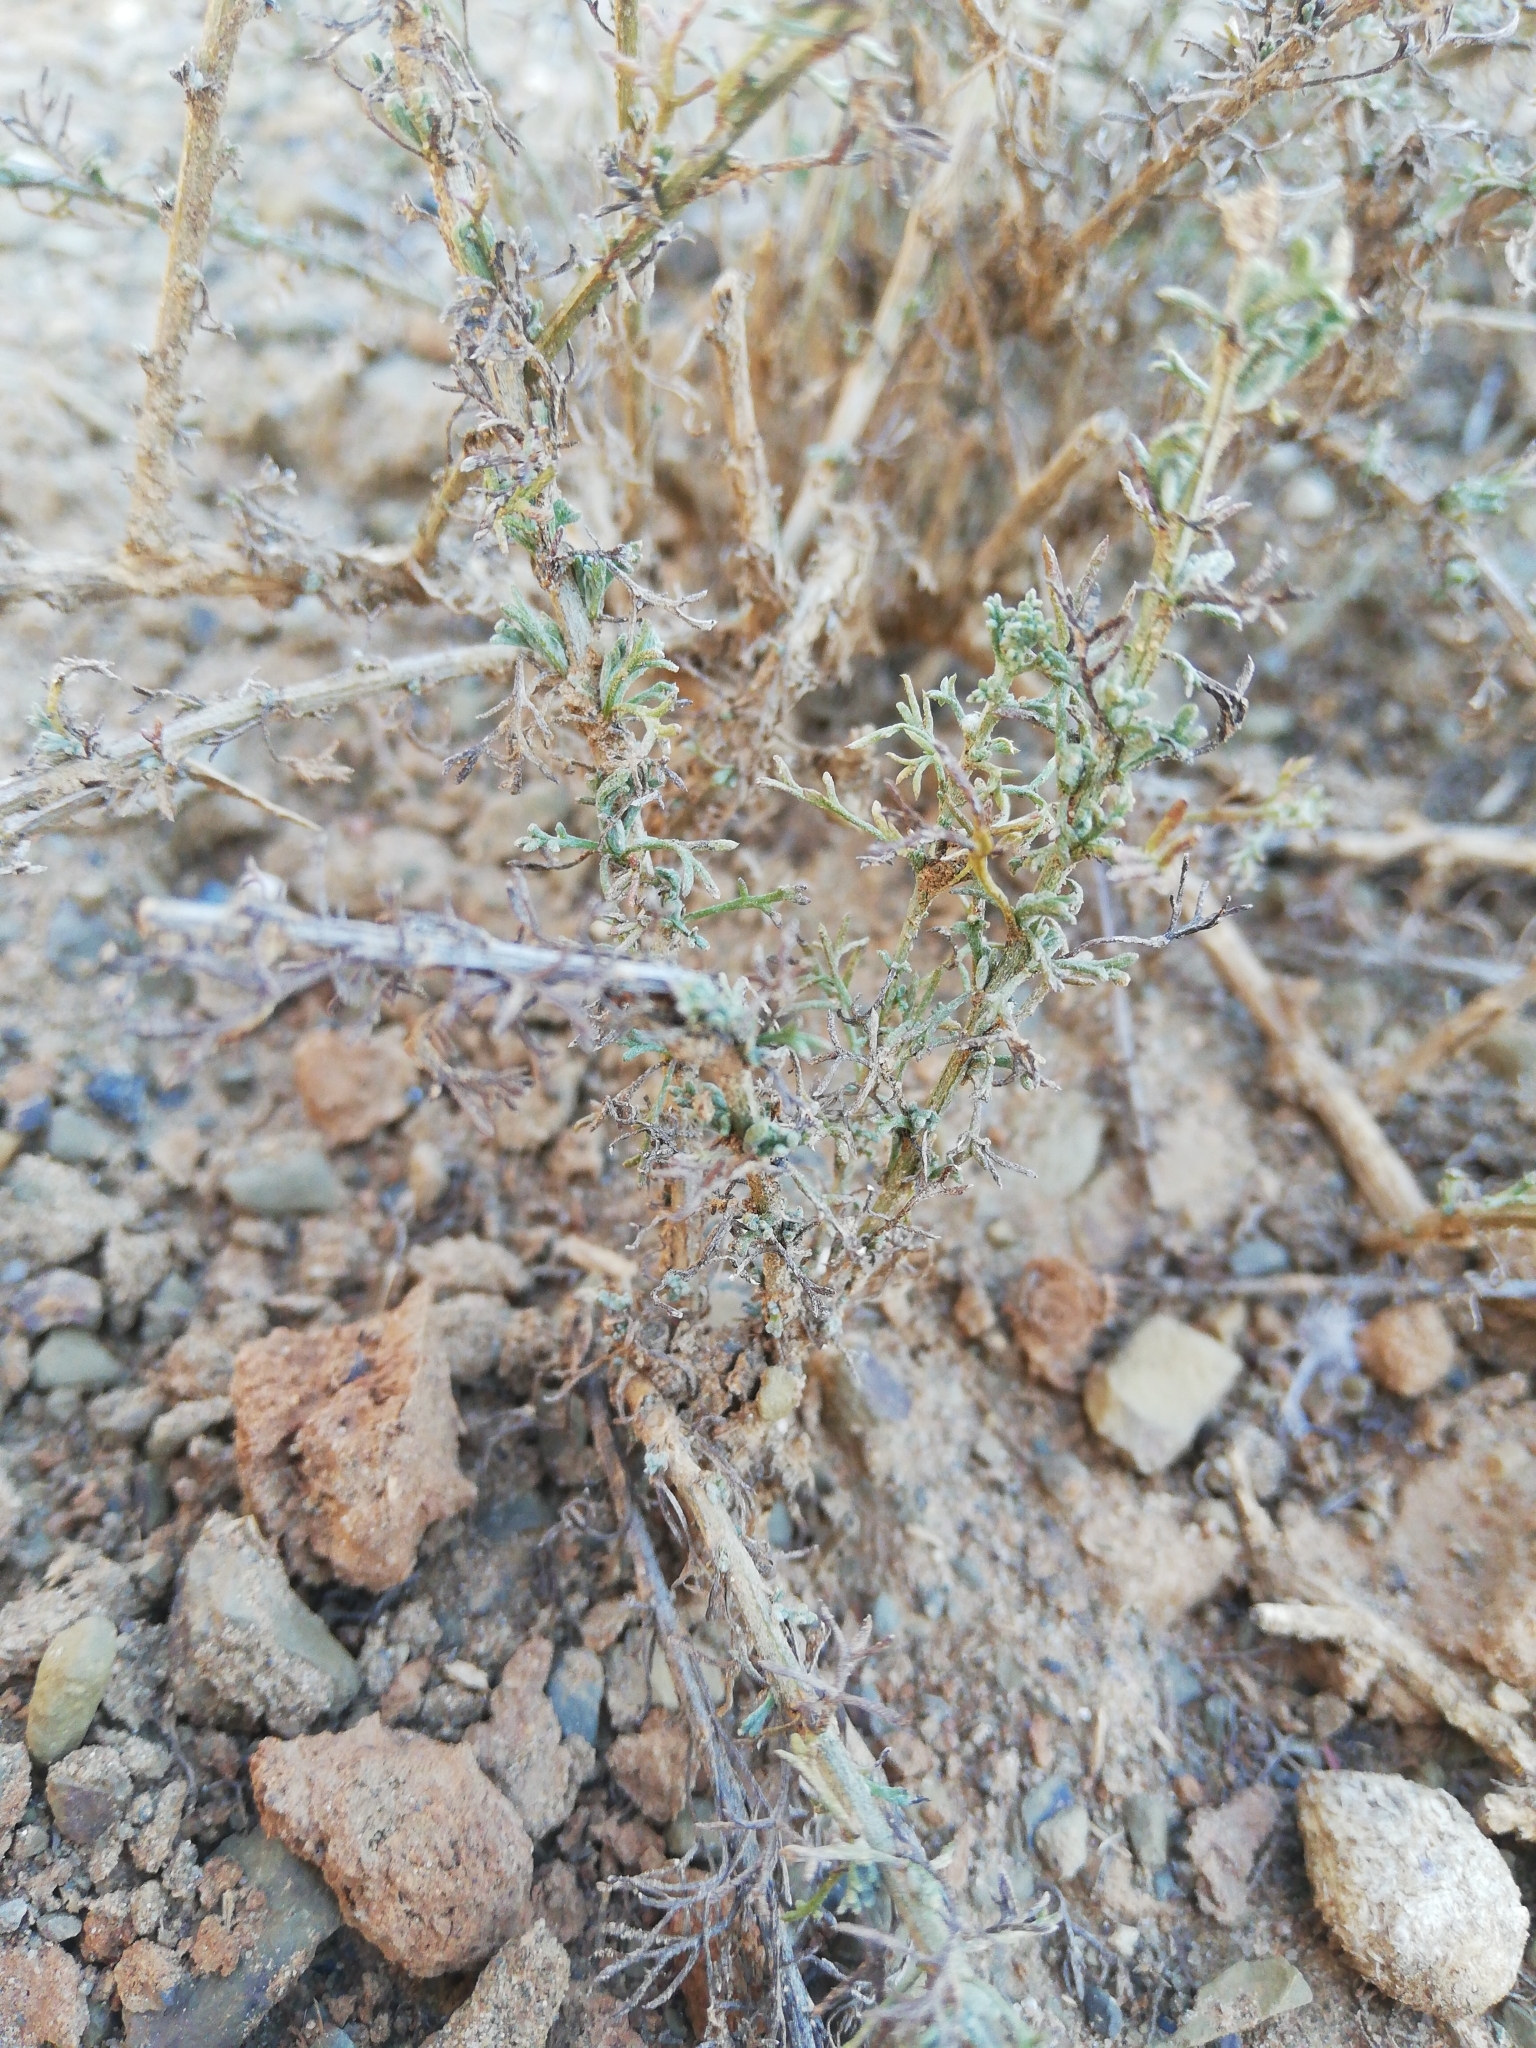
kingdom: Plantae
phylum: Tracheophyta
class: Magnoliopsida
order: Asterales
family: Asteraceae
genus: Pentzia
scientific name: Pentzia incana
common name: African sheepbush
